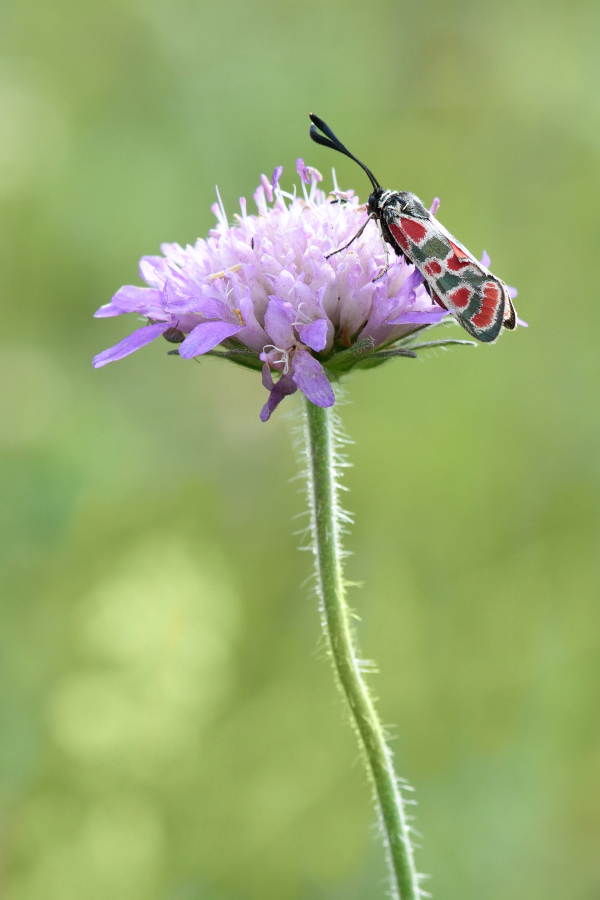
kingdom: Animalia
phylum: Arthropoda
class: Insecta
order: Lepidoptera
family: Zygaenidae
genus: Zygaena
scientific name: Zygaena carniolica
